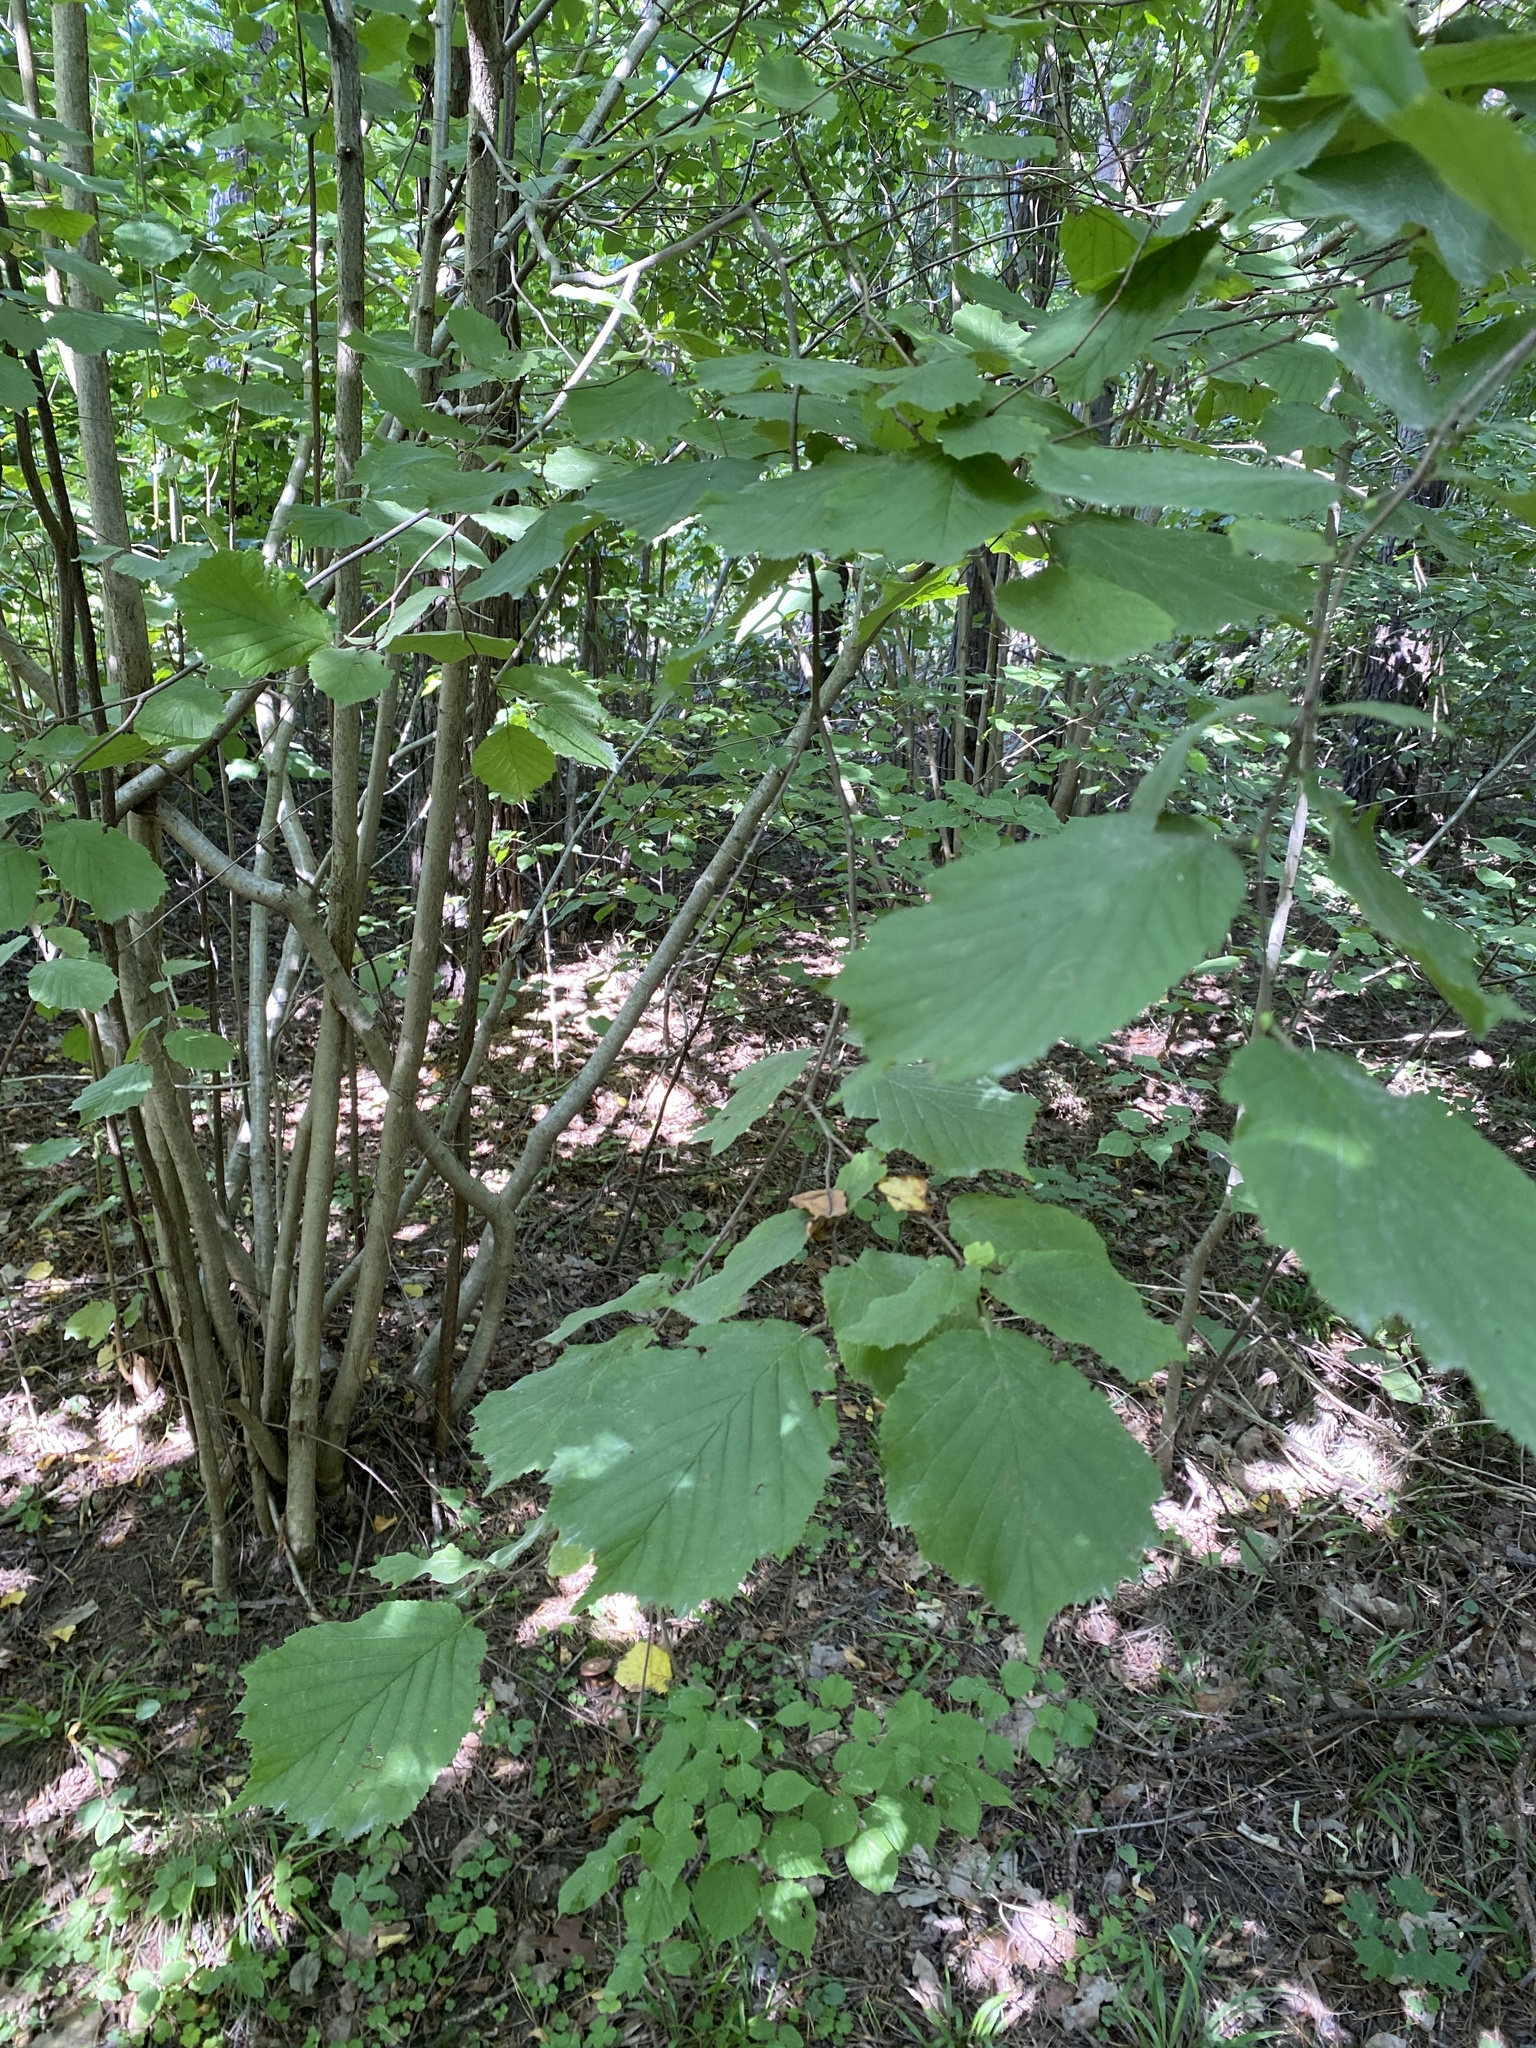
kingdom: Plantae
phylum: Tracheophyta
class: Magnoliopsida
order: Fagales
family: Betulaceae
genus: Corylus
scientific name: Corylus avellana
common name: European hazel
